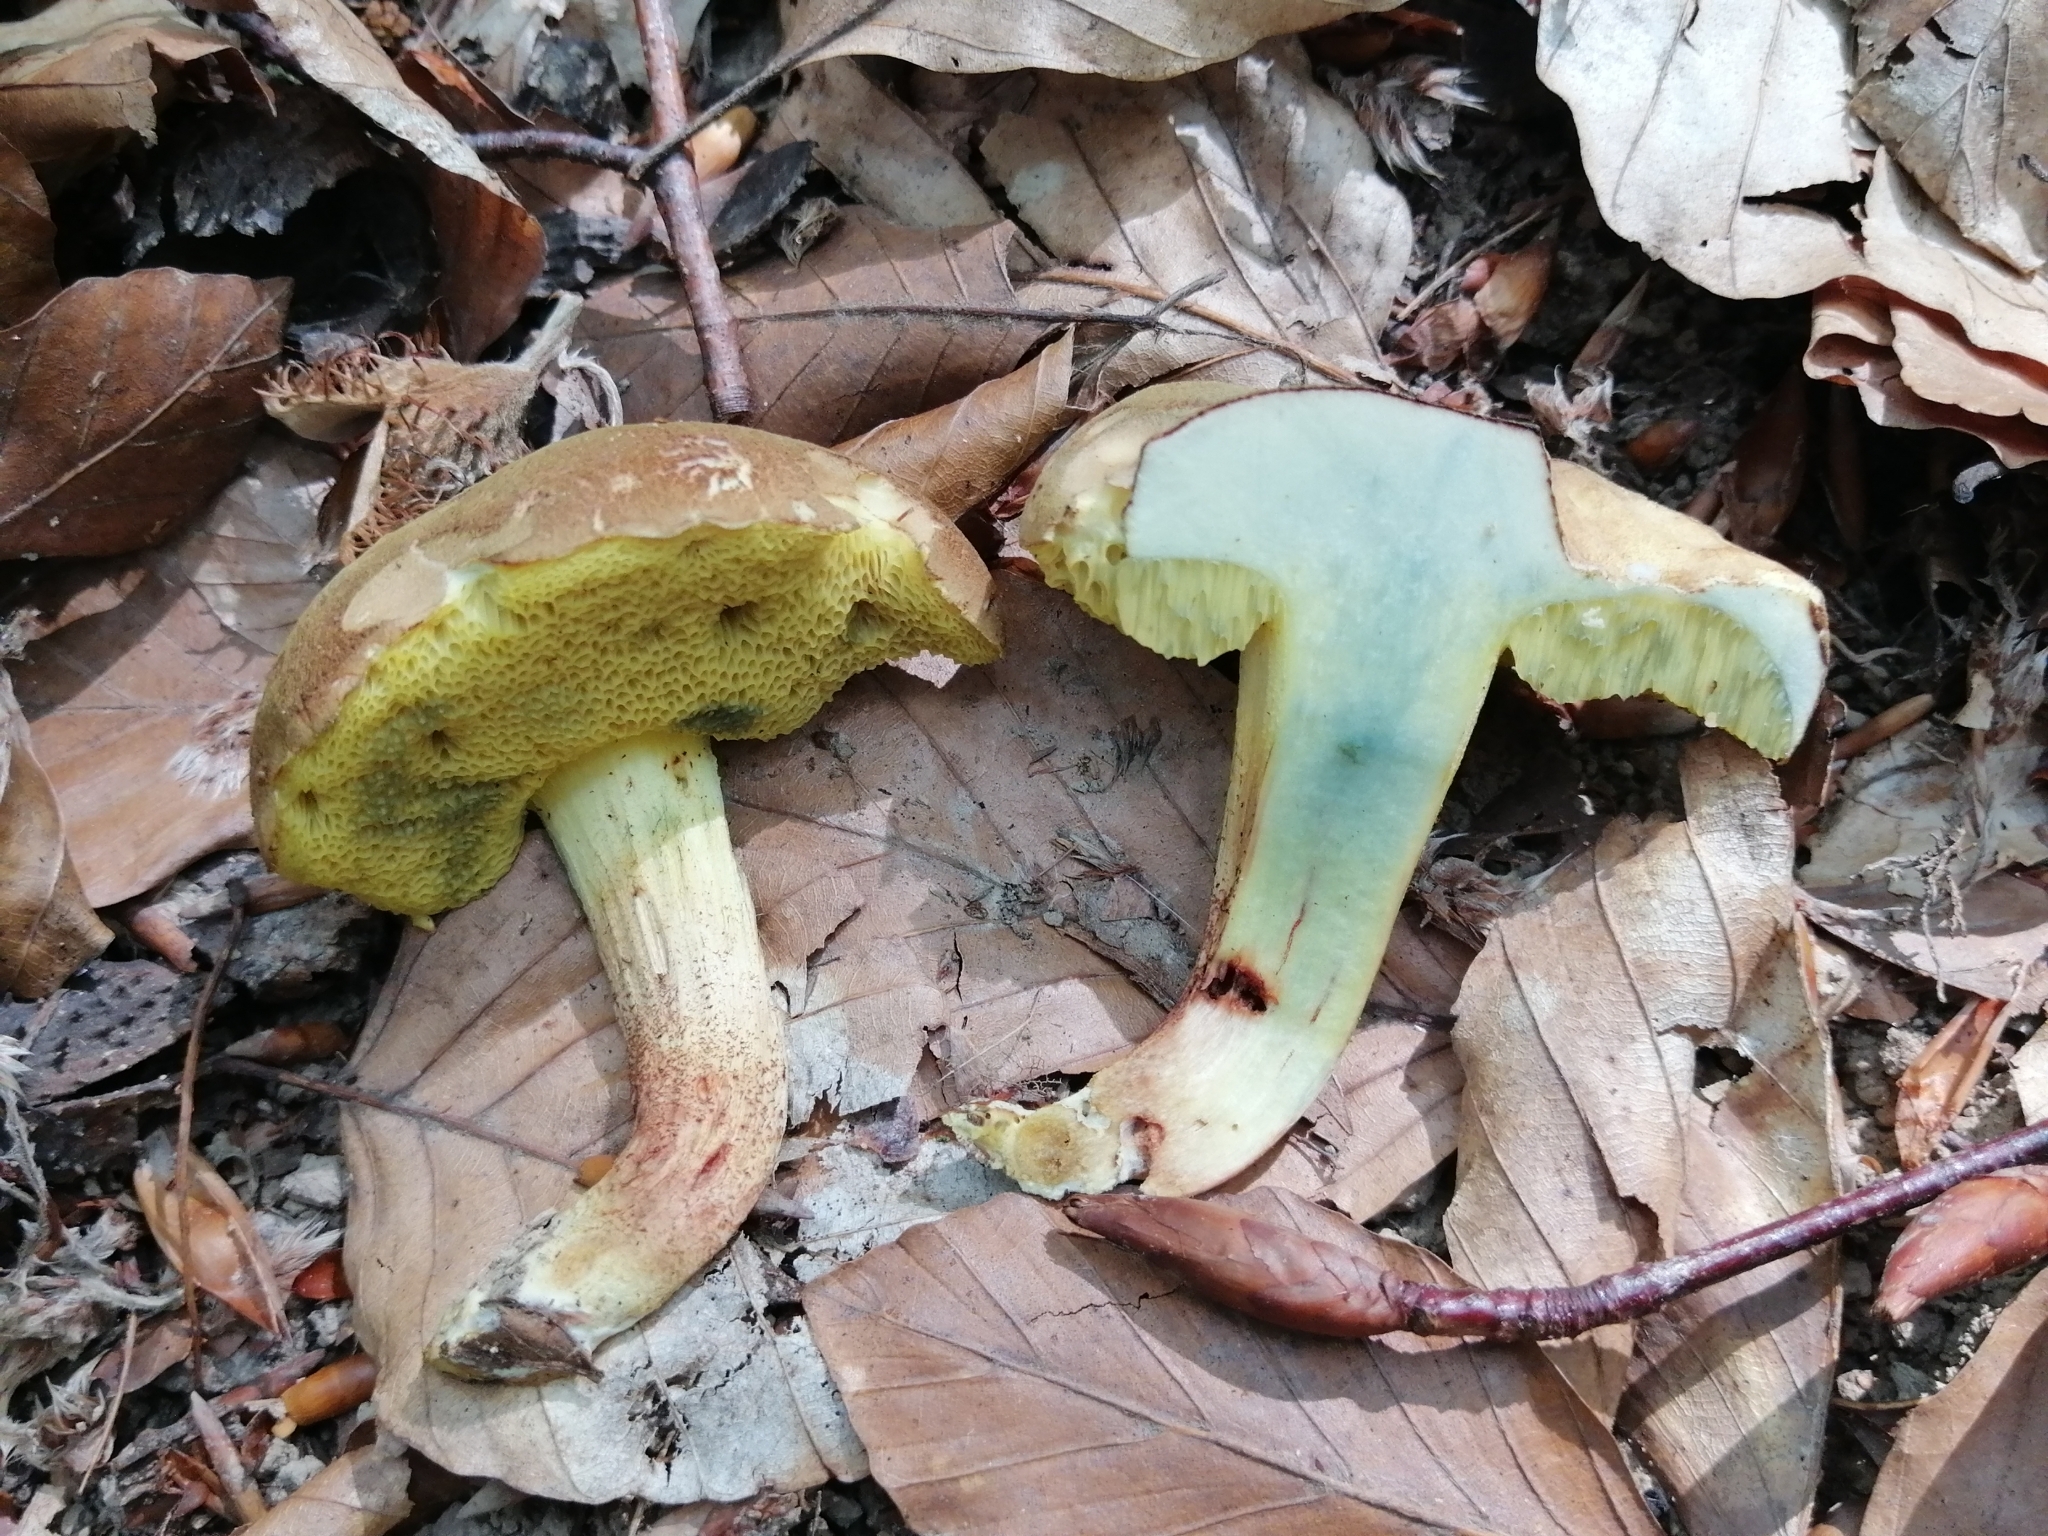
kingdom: Fungi
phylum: Basidiomycota
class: Agaricomycetes
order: Boletales
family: Boletaceae
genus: Xerocomus
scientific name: Xerocomus subtomentosus
